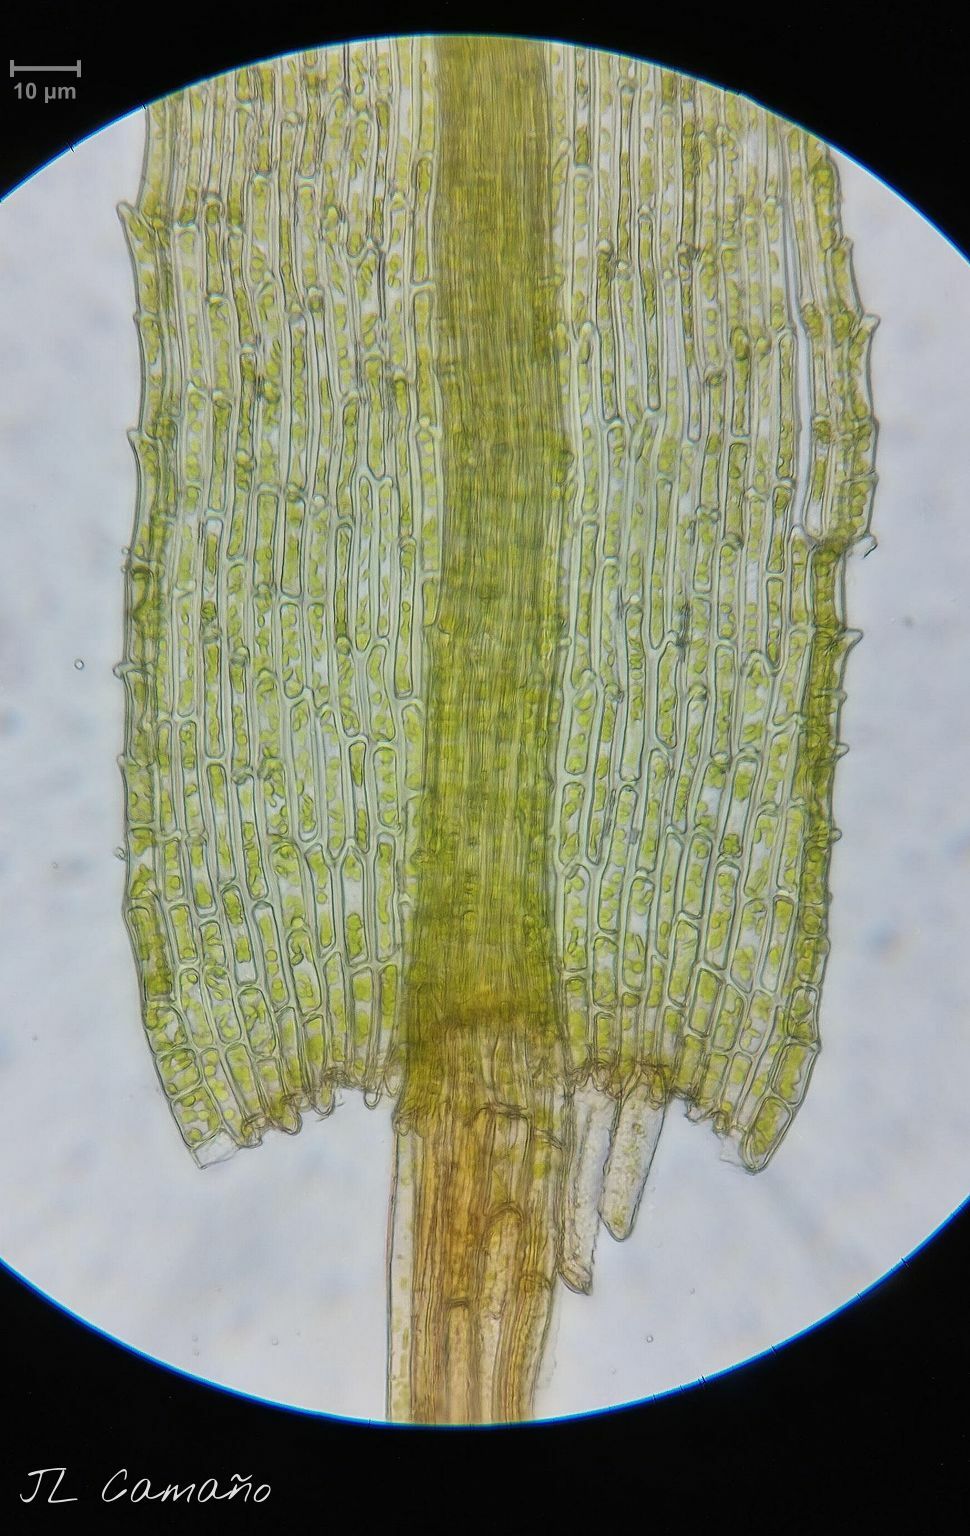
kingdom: Plantae
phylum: Bryophyta
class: Bryopsida
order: Bartramiales
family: Bartramiaceae
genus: Philonotis
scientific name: Philonotis fontana
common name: Fountain apple-moss
